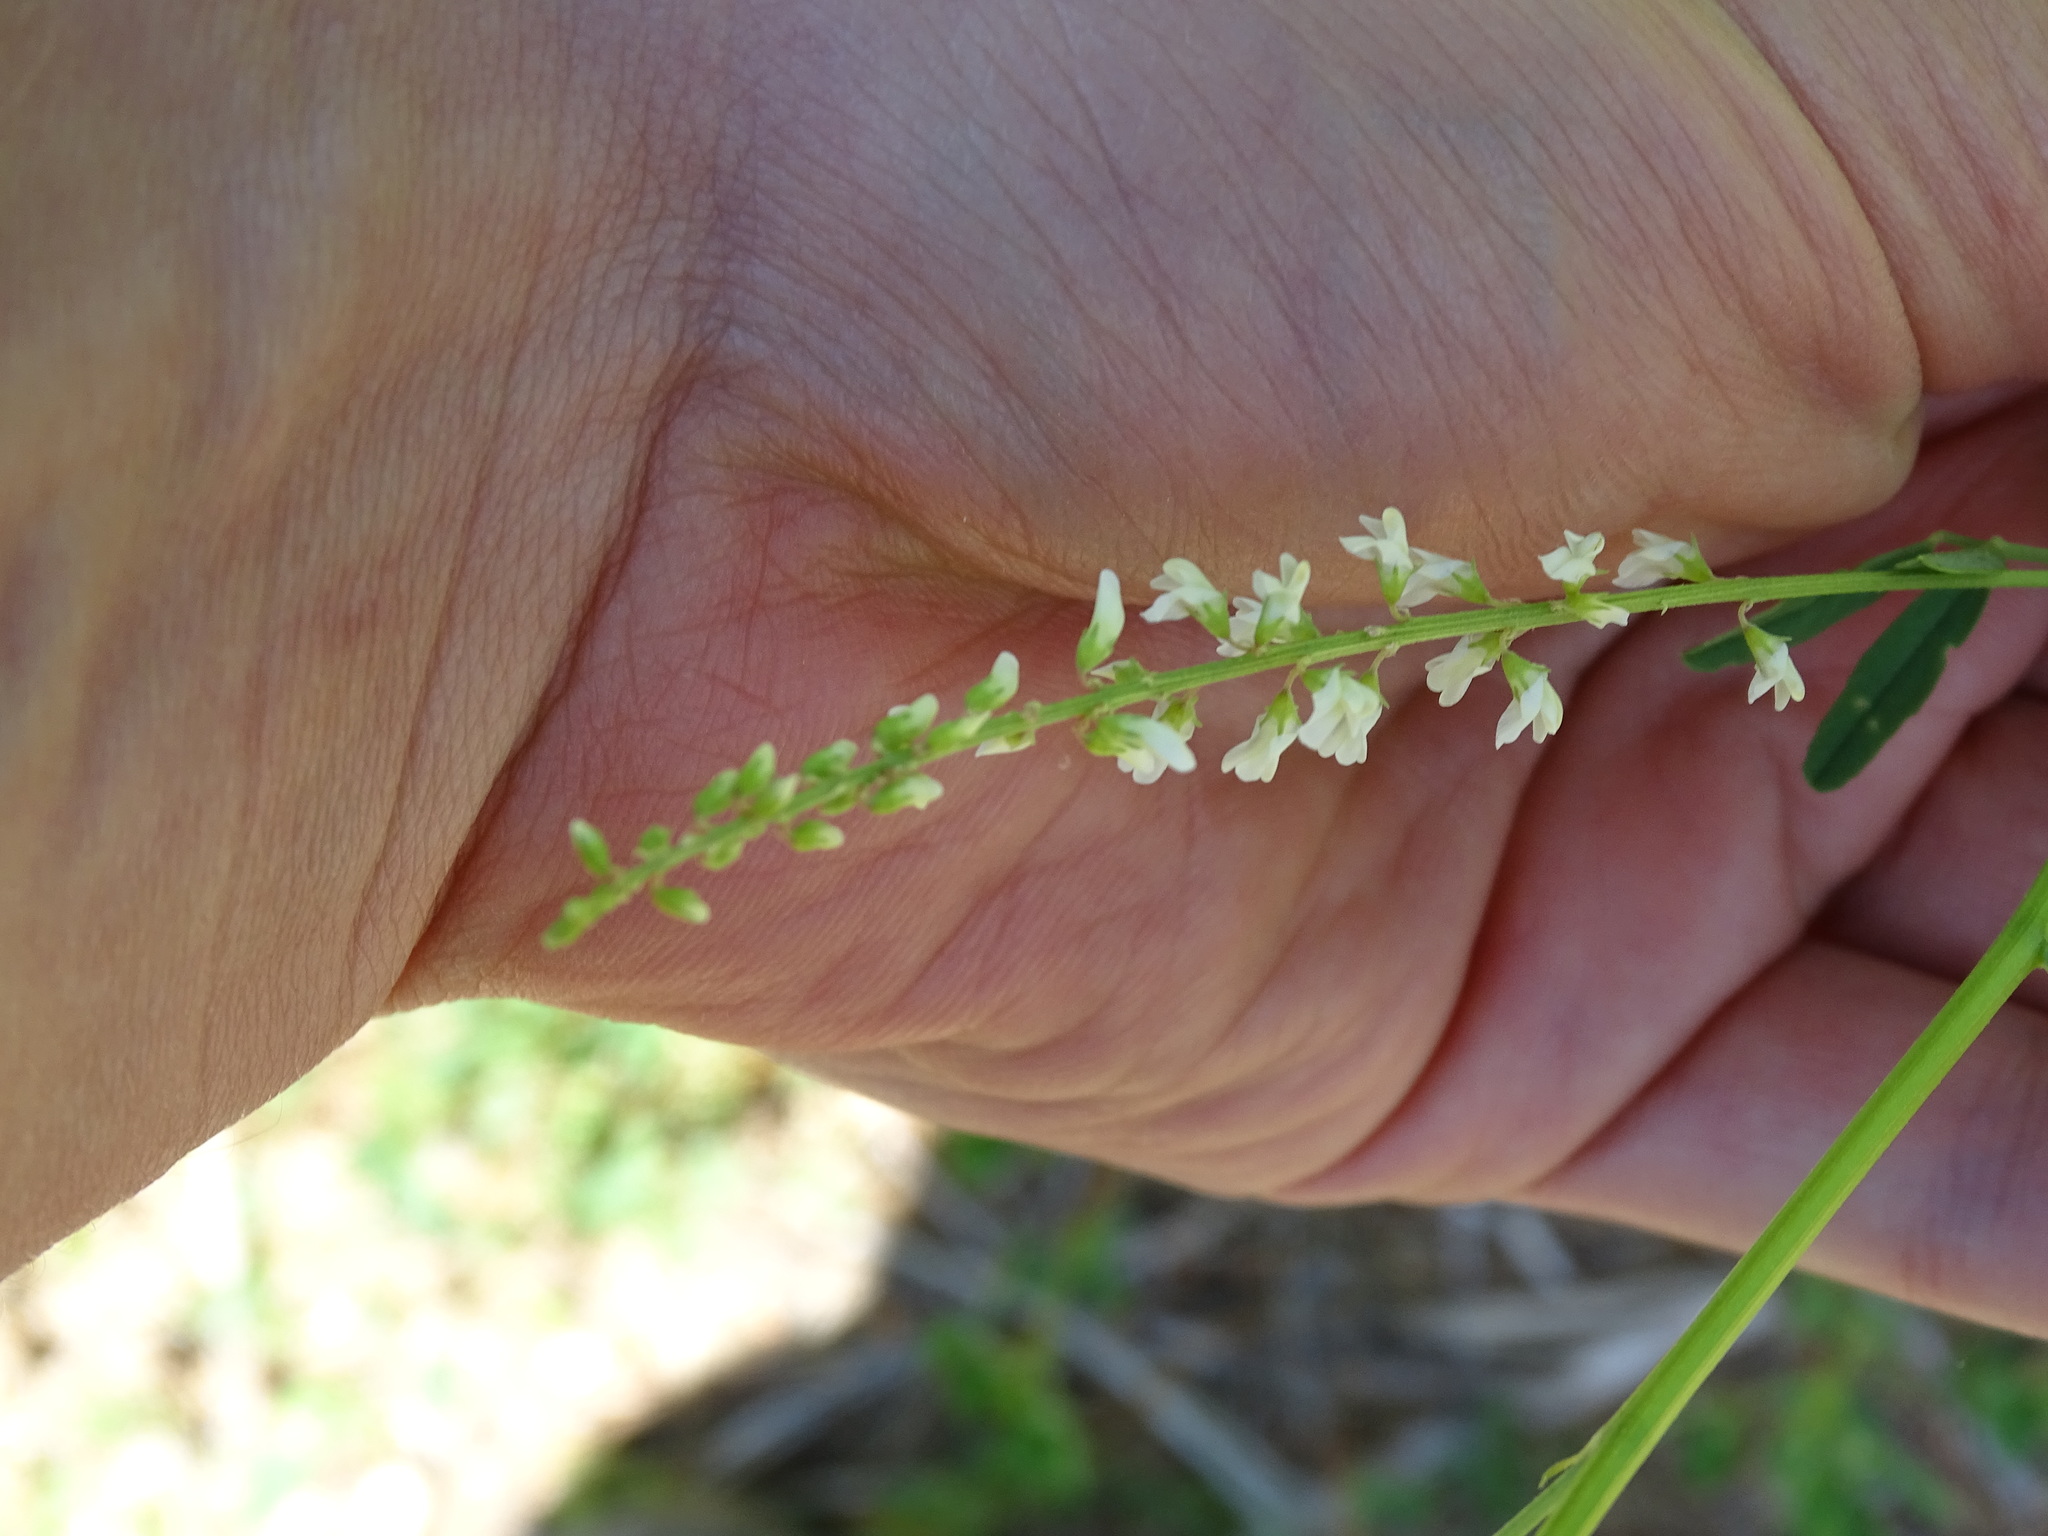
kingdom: Plantae
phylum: Tracheophyta
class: Magnoliopsida
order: Fabales
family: Fabaceae
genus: Melilotus
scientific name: Melilotus albus
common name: White melilot
